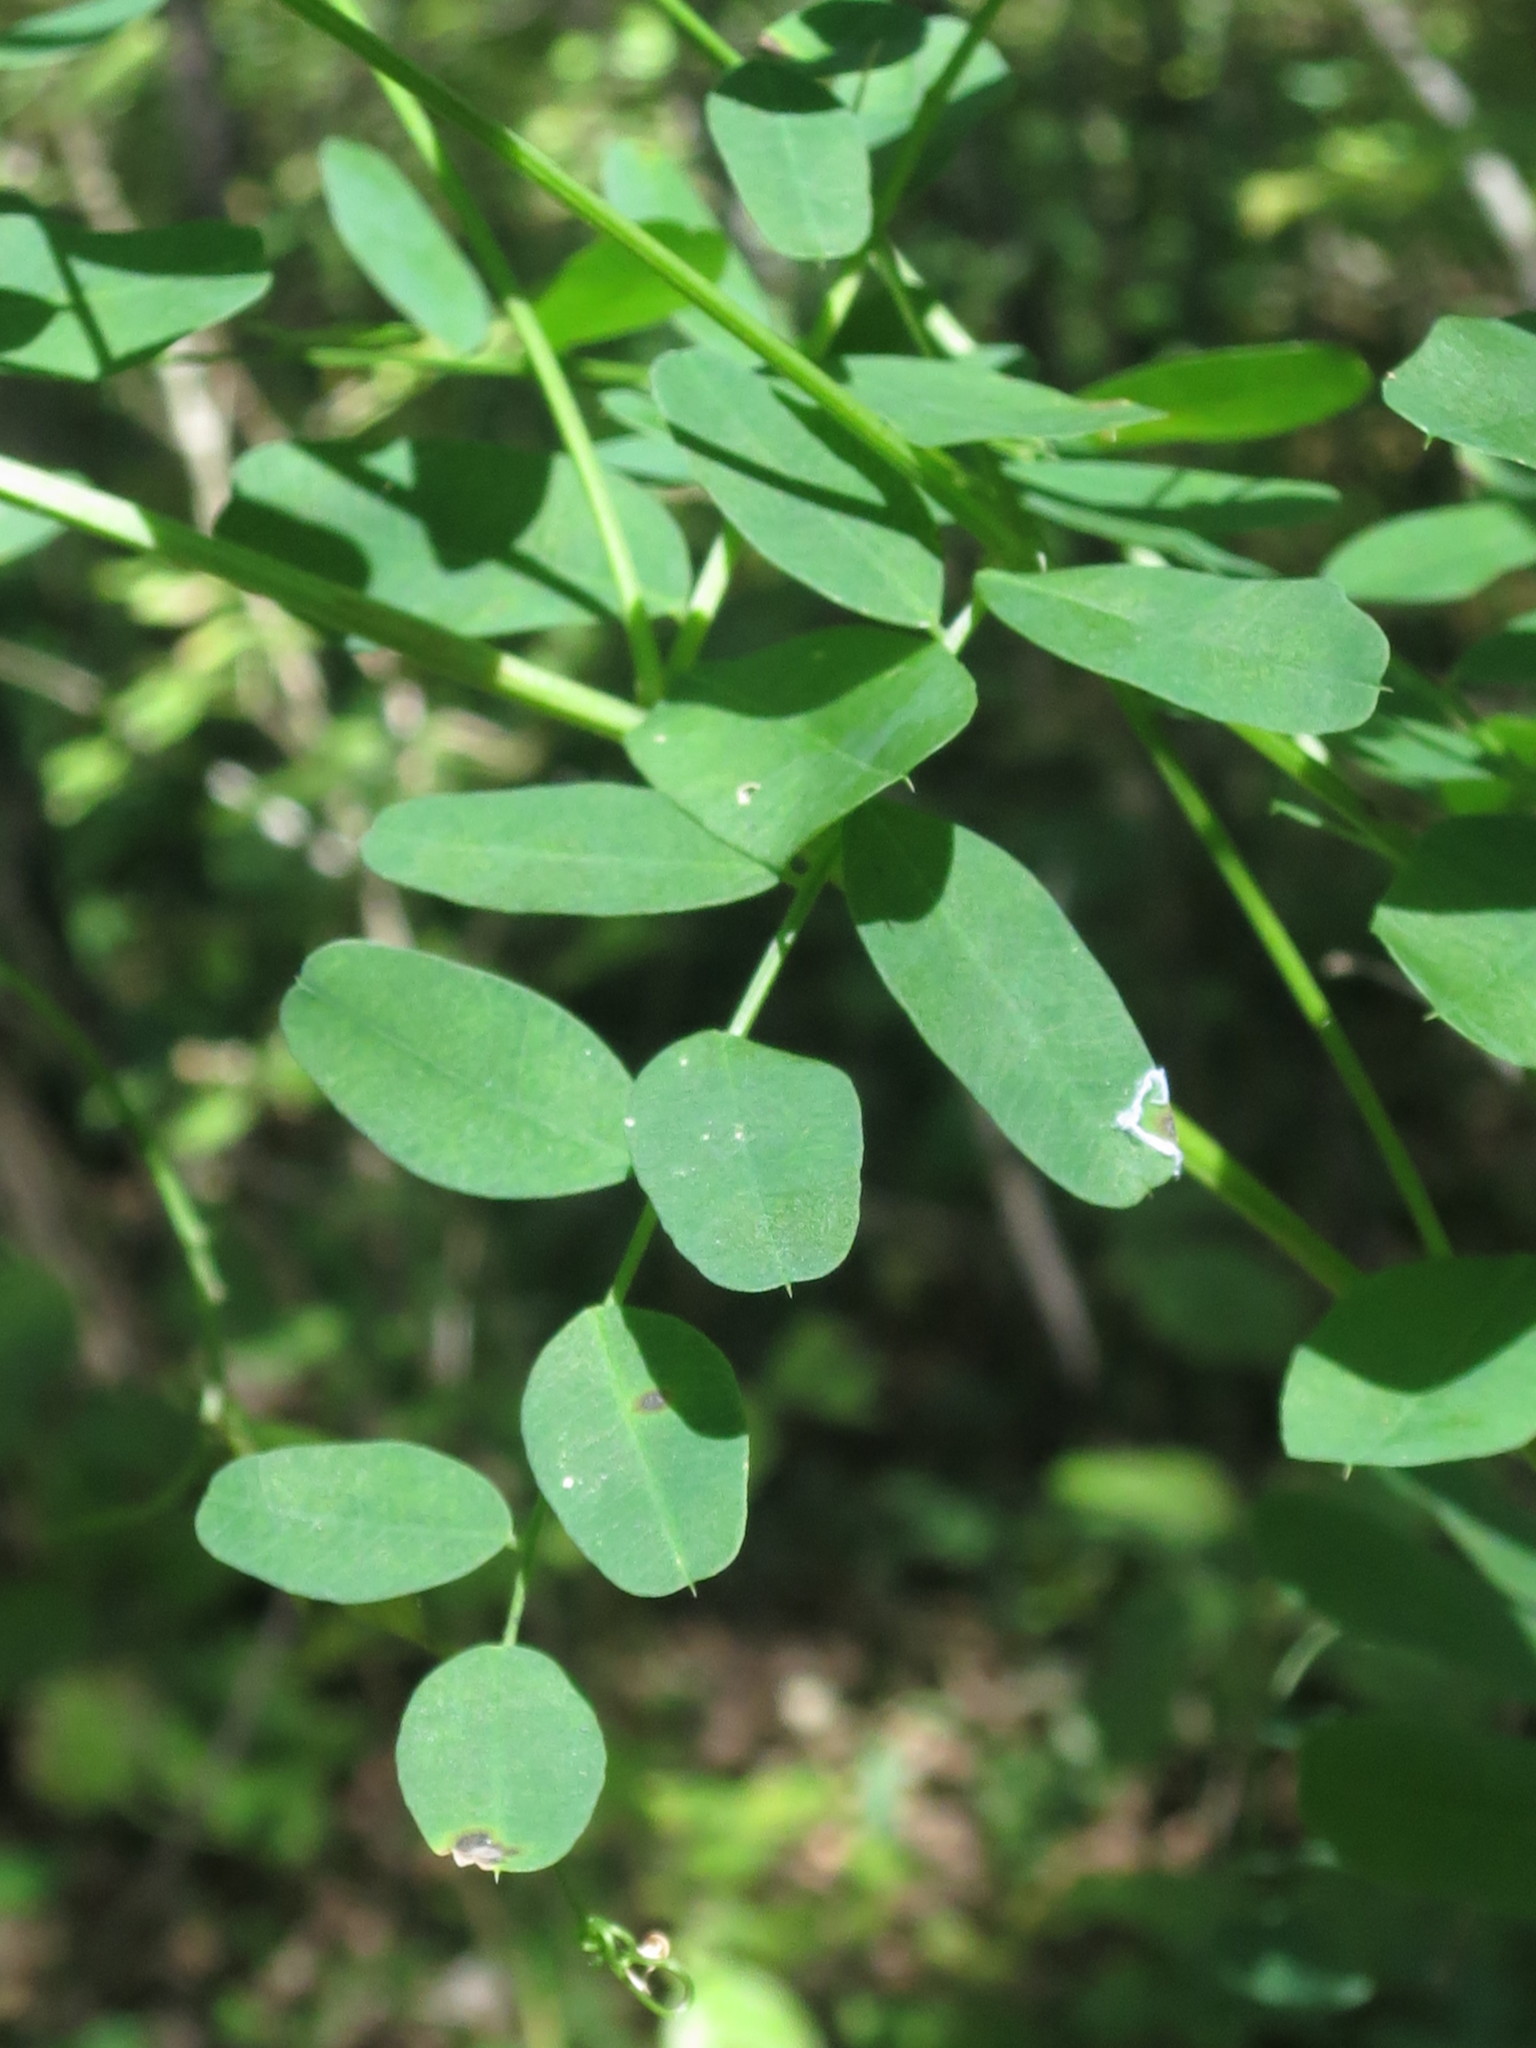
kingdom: Plantae
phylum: Tracheophyta
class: Magnoliopsida
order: Fabales
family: Fabaceae
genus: Vicia
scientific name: Vicia amurensis
